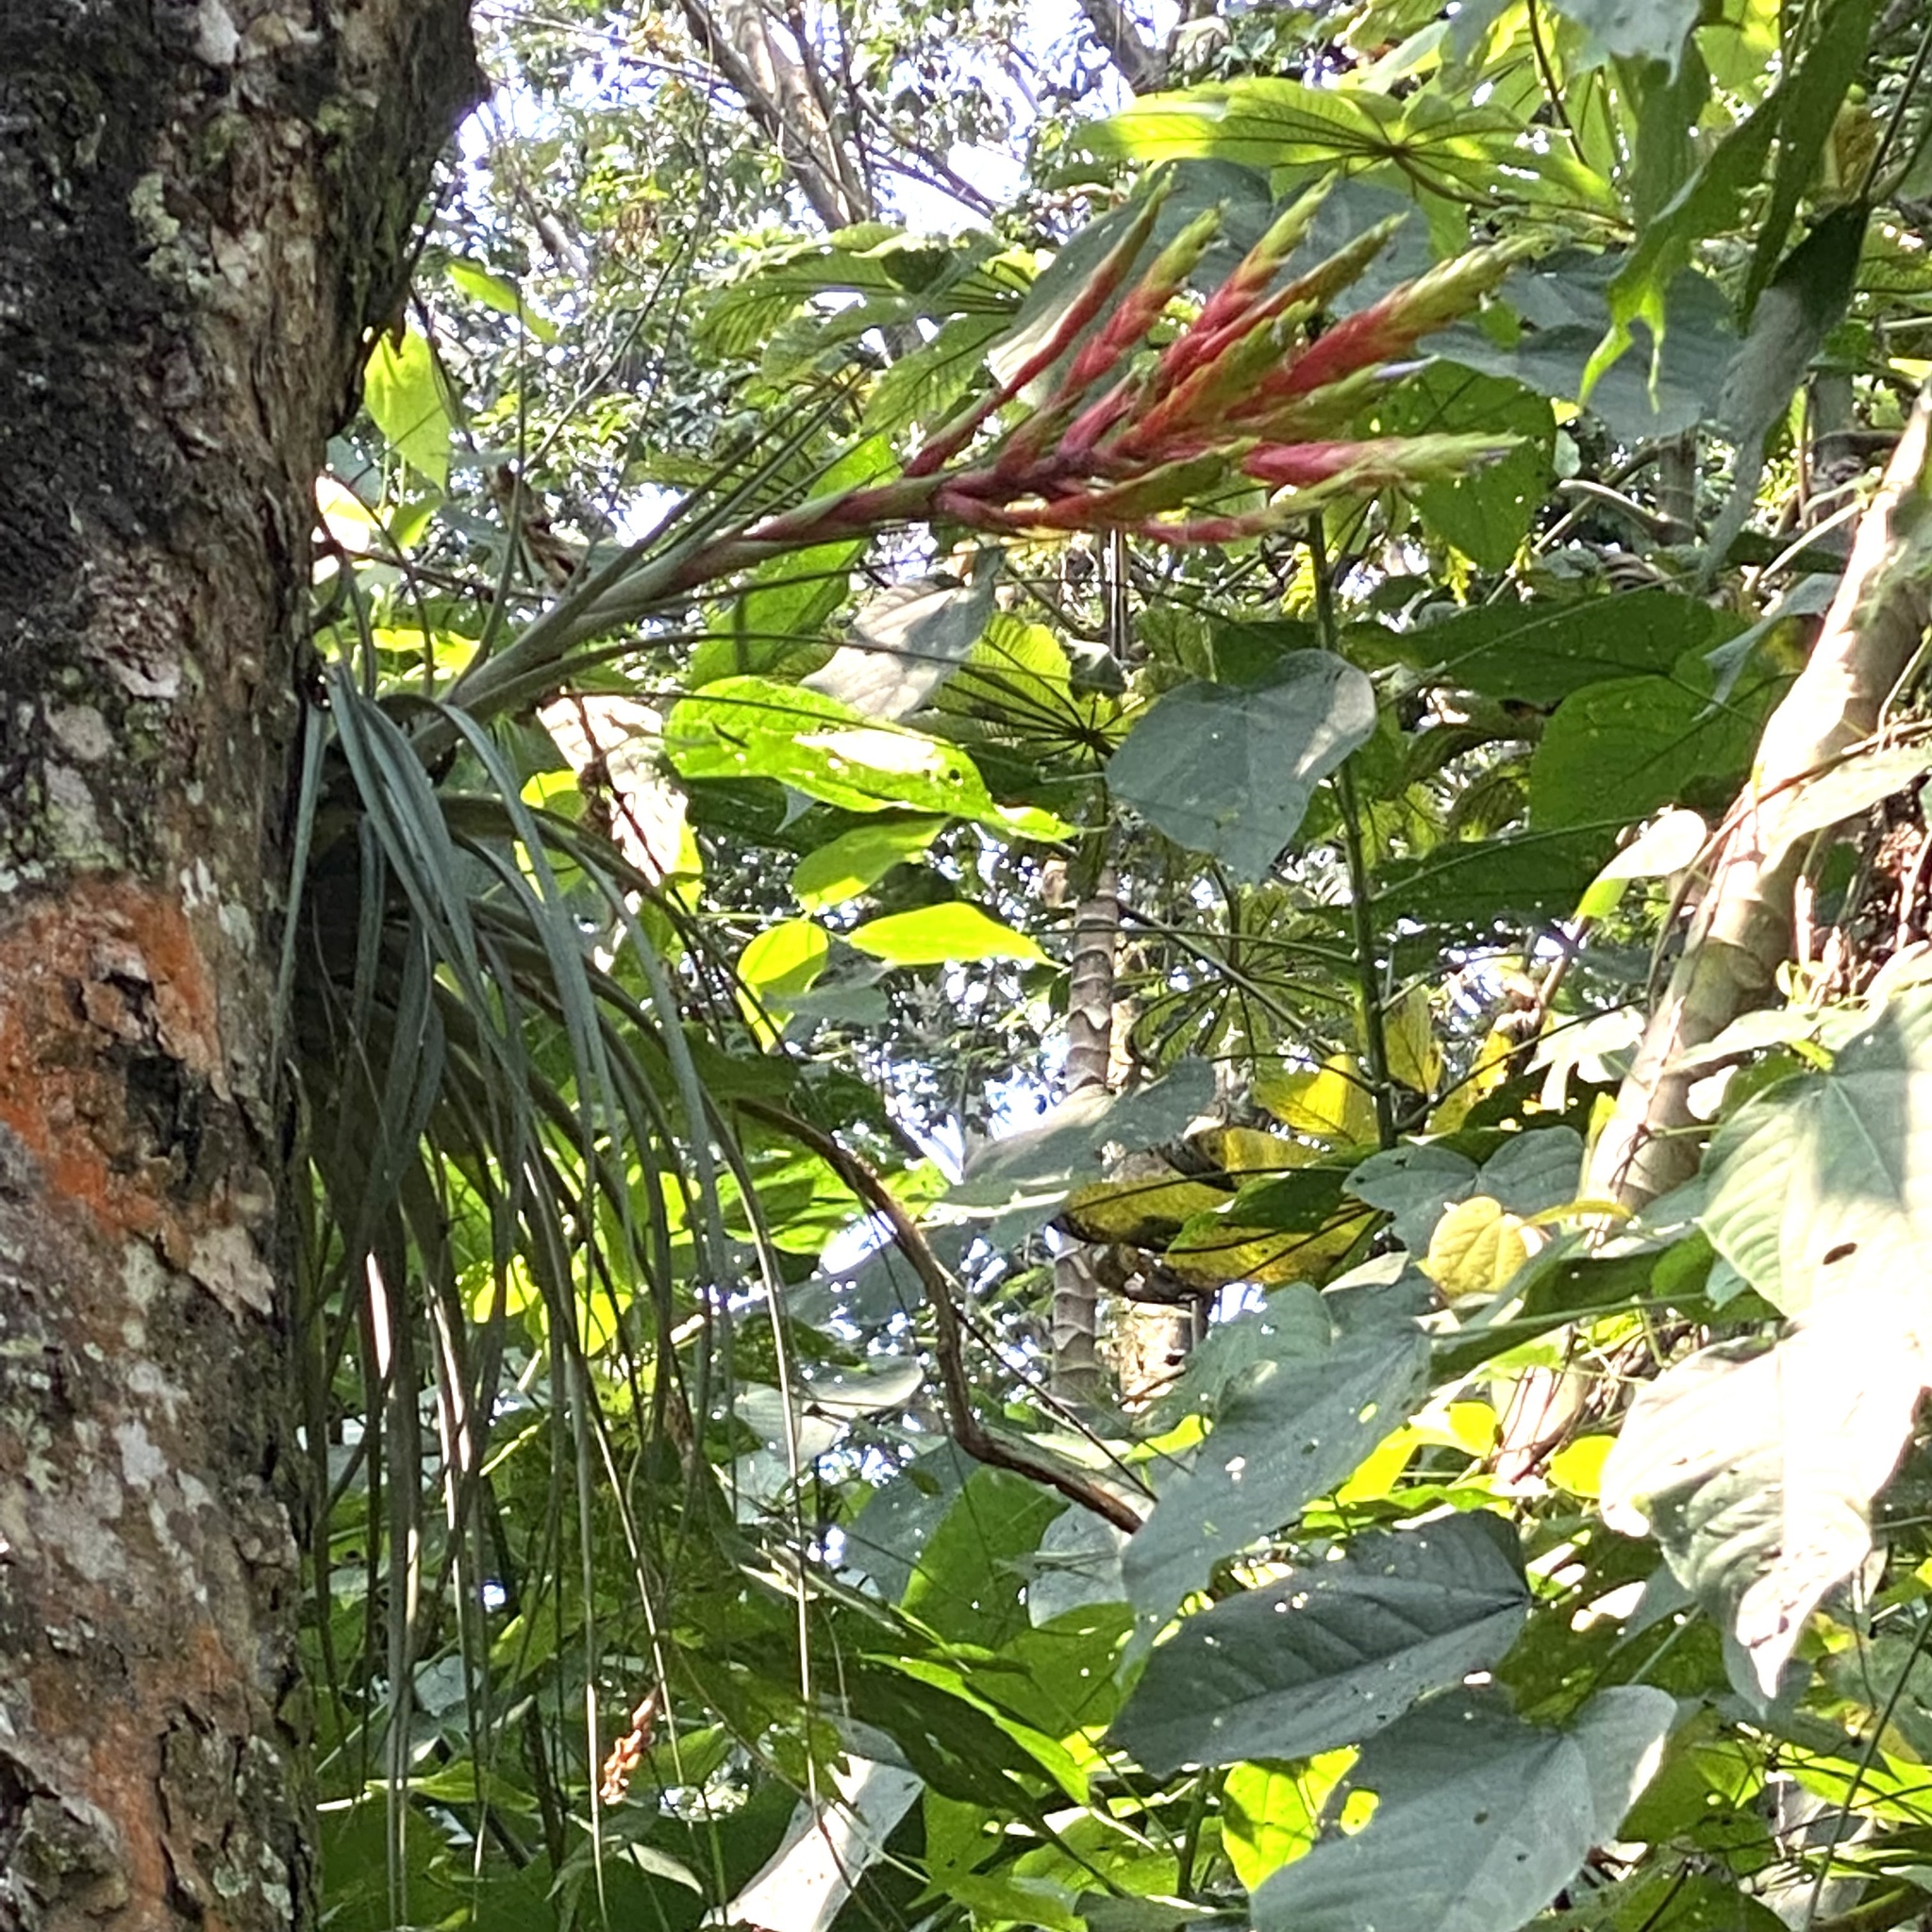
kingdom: Plantae
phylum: Tracheophyta
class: Liliopsida
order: Poales
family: Bromeliaceae
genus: Tillandsia
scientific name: Tillandsia fasciculata
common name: Giant airplant
